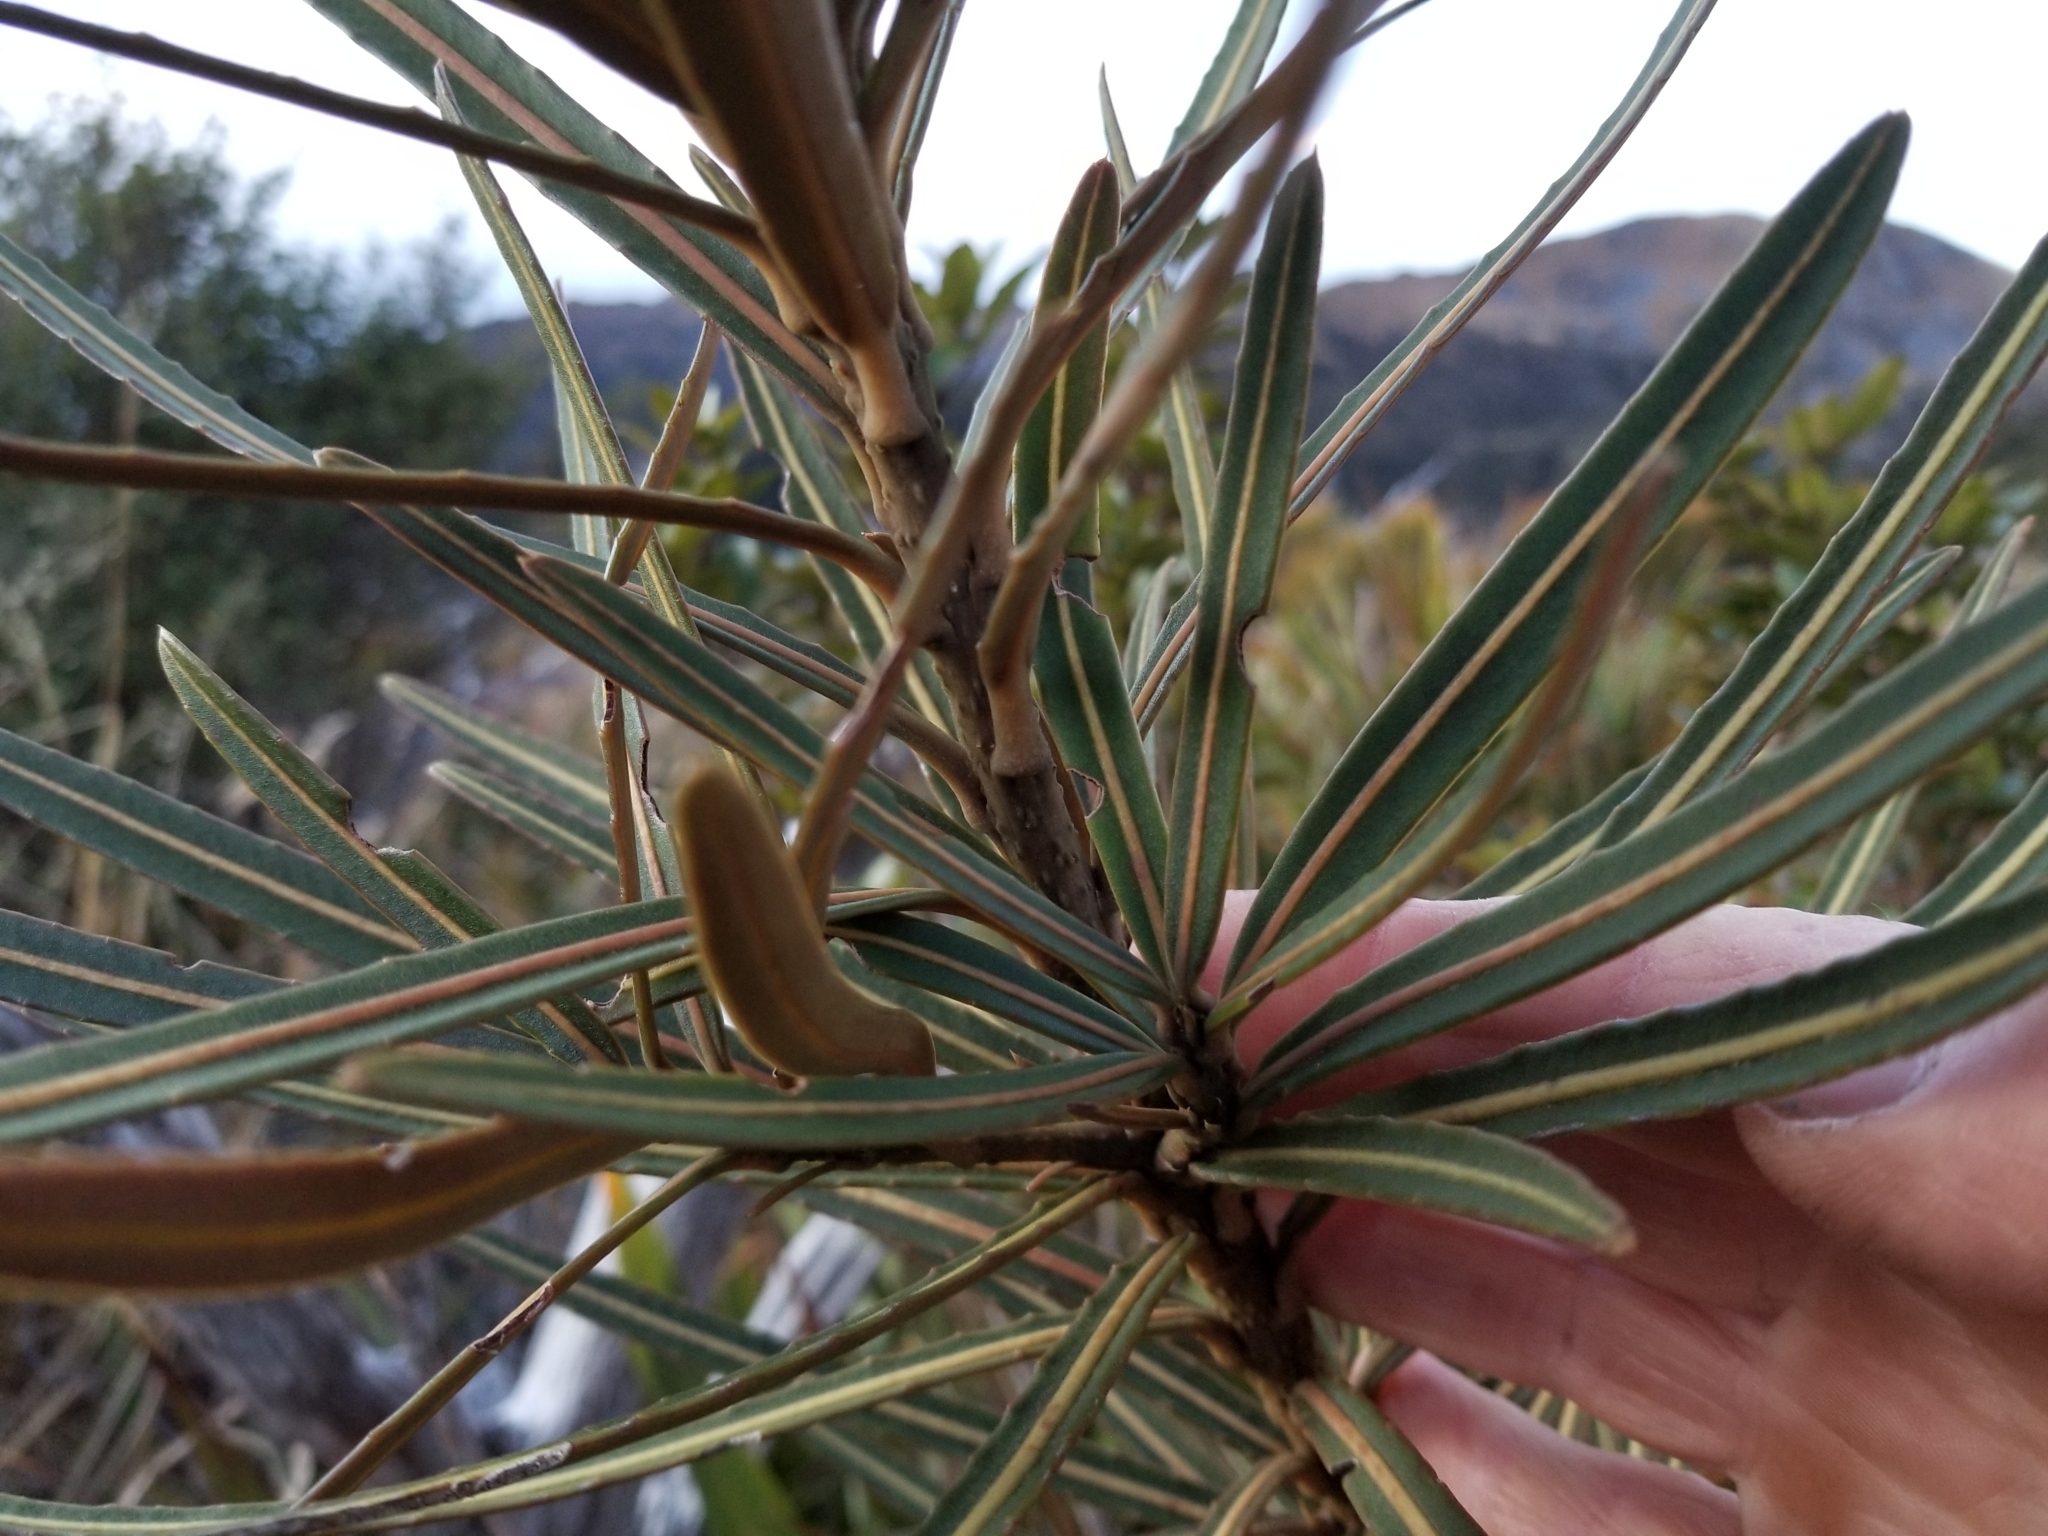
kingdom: Plantae
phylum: Tracheophyta
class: Magnoliopsida
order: Apiales
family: Araliaceae
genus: Pseudopanax
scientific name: Pseudopanax linearis
